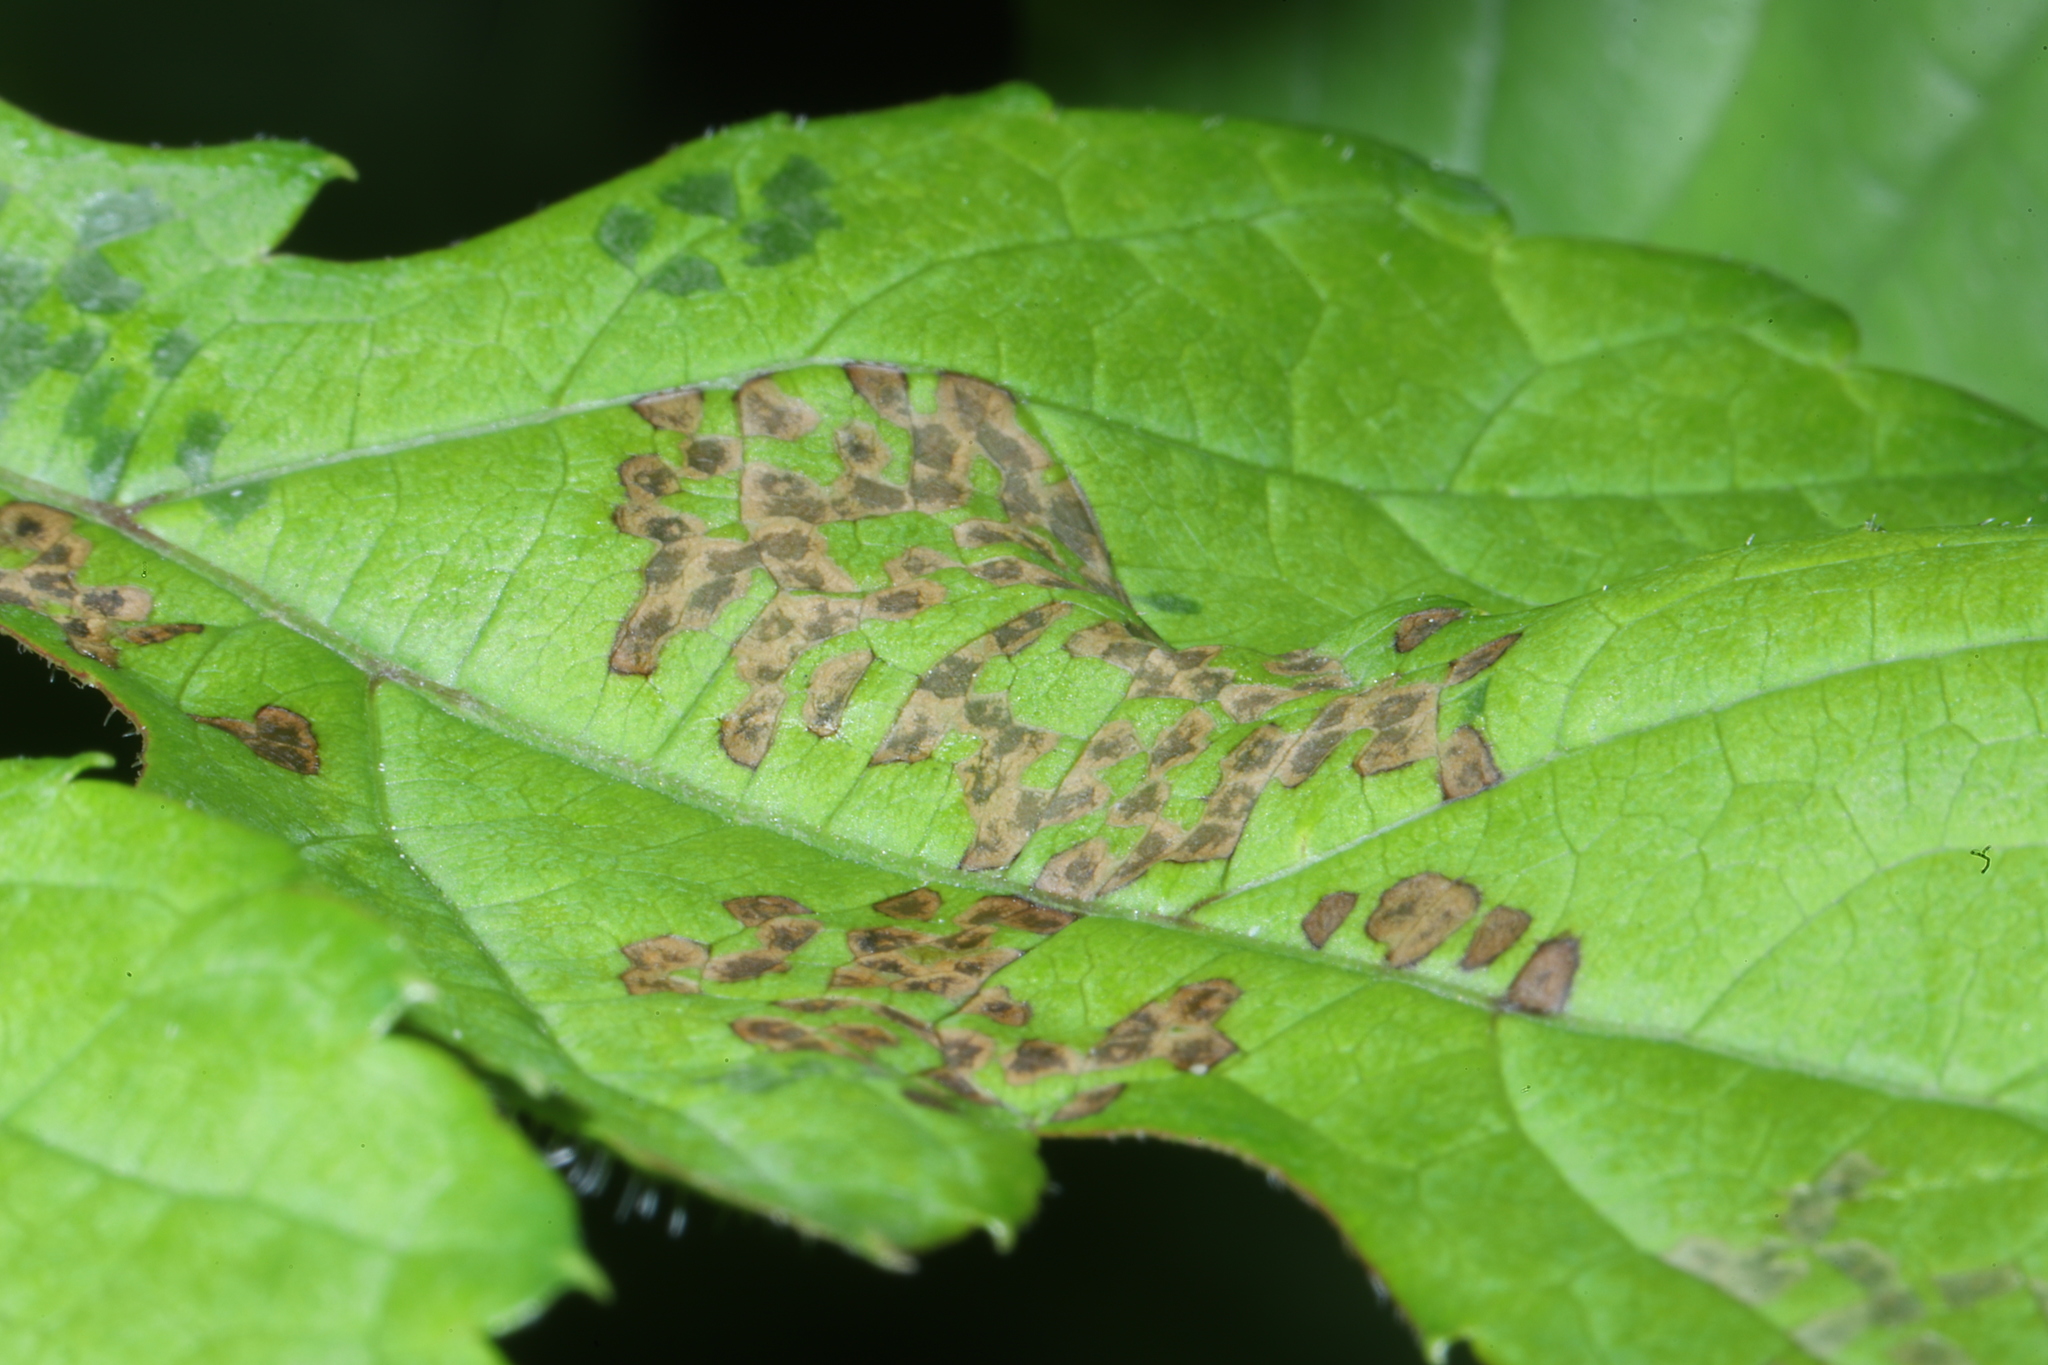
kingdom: Animalia
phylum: Arthropoda
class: Insecta
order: Hemiptera
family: Miridae
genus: Poecilocapsus
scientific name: Poecilocapsus lineatus
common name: Four-lined plant bug
